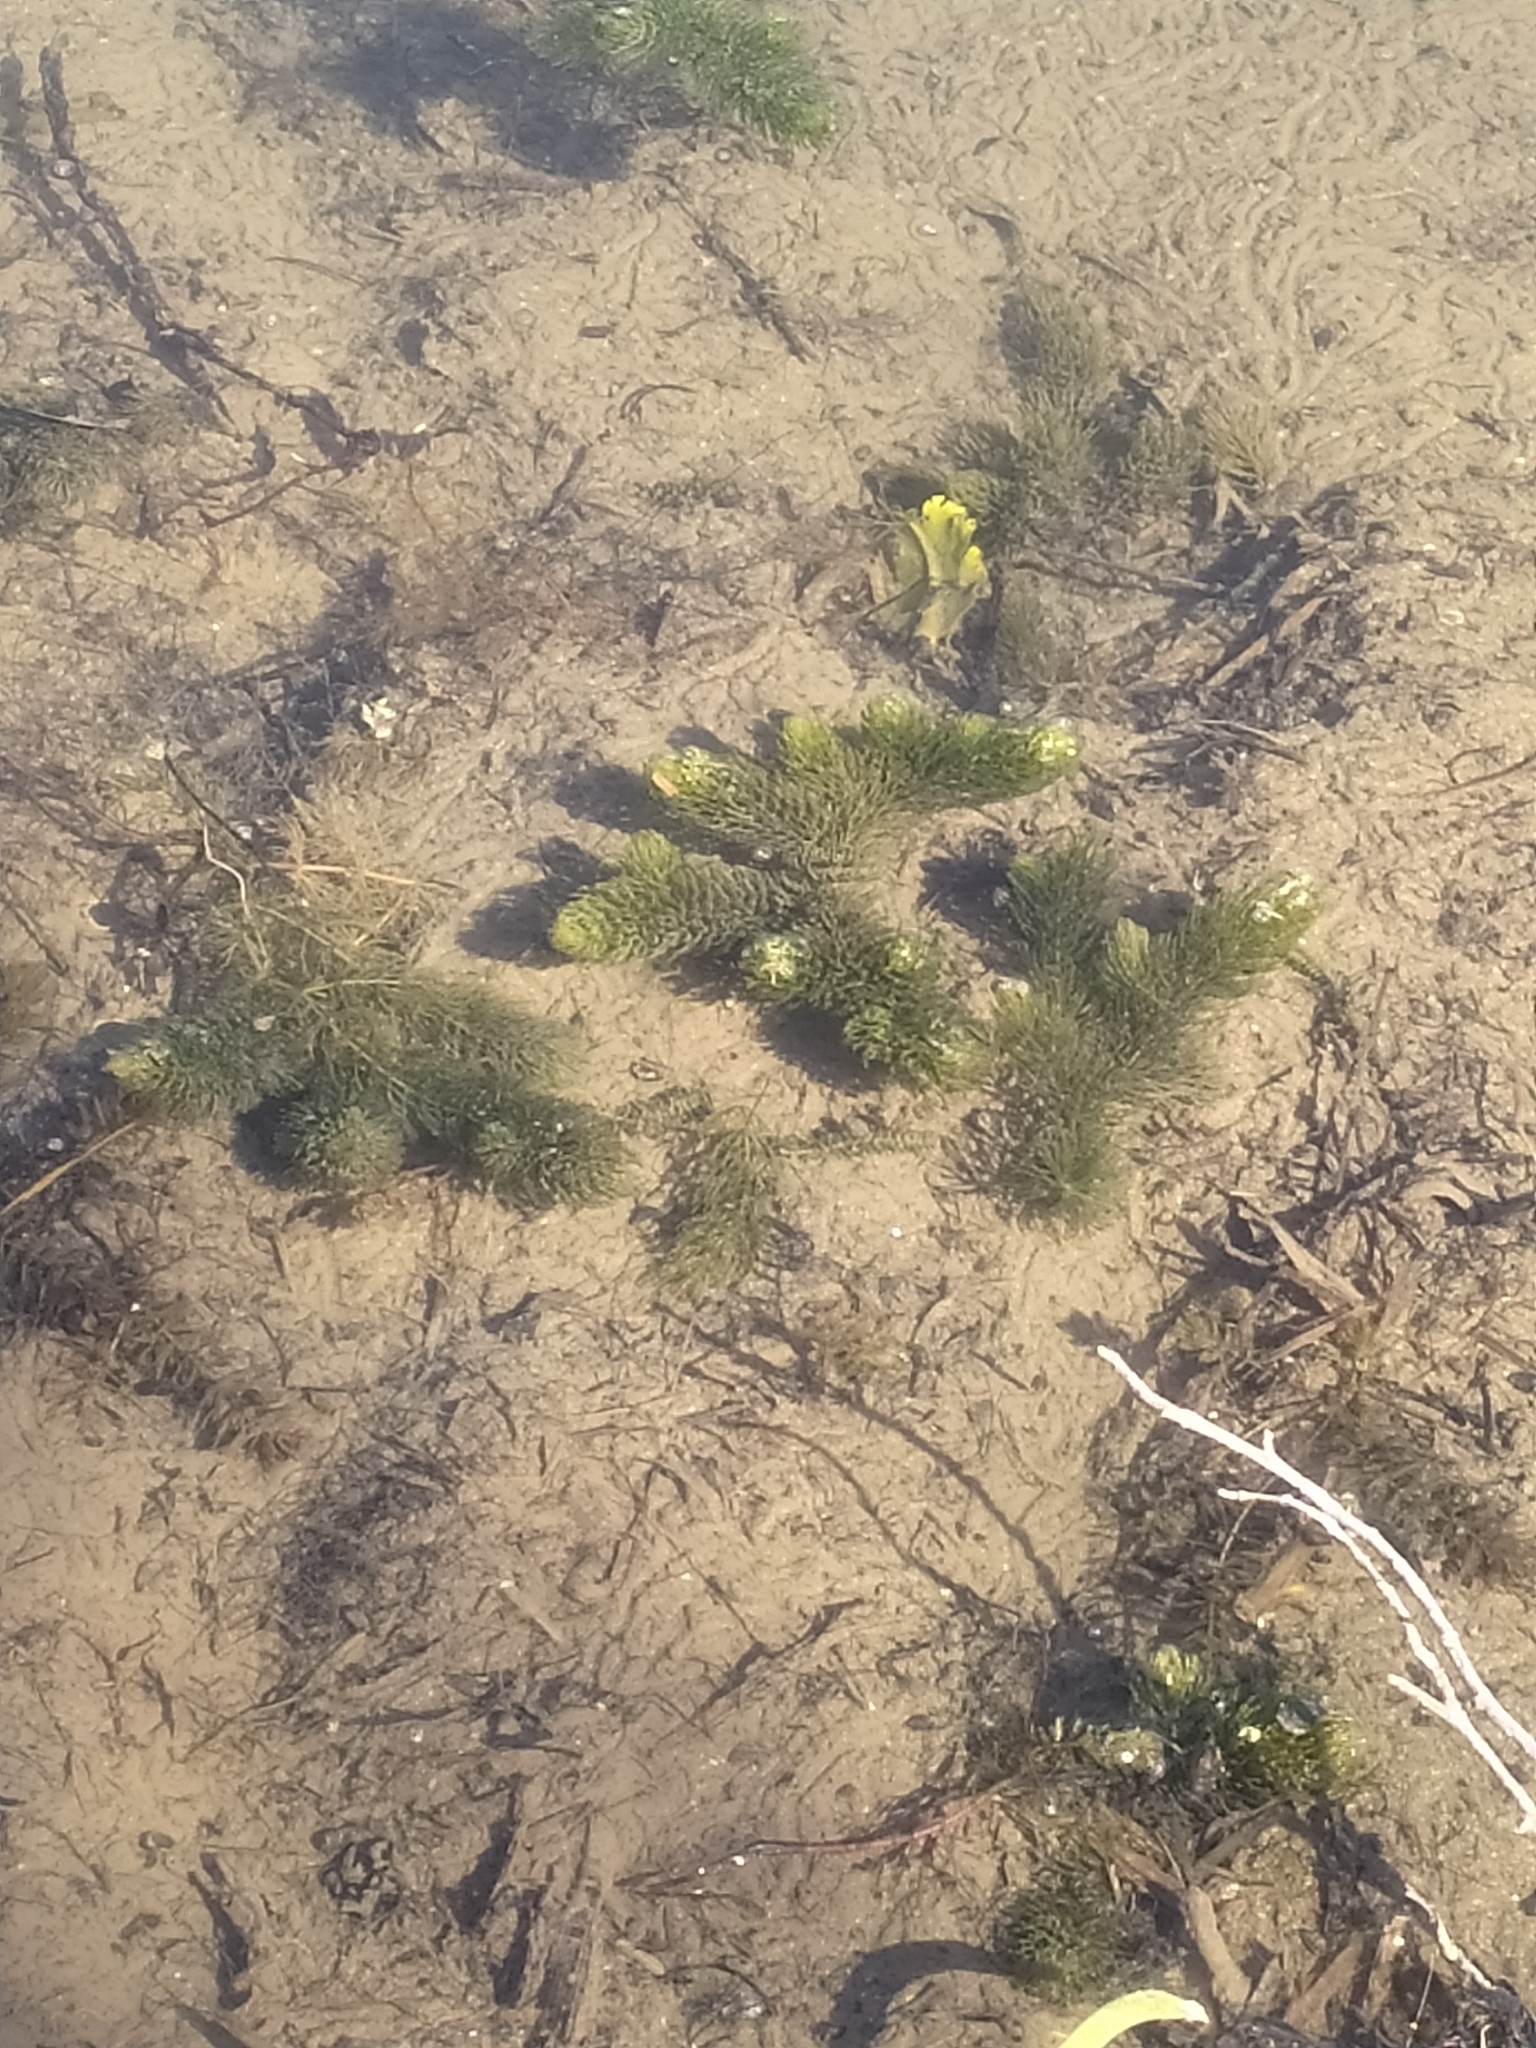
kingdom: Plantae
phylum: Tracheophyta
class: Magnoliopsida
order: Ceratophyllales
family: Ceratophyllaceae
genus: Ceratophyllum
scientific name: Ceratophyllum demersum
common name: Rigid hornwort
